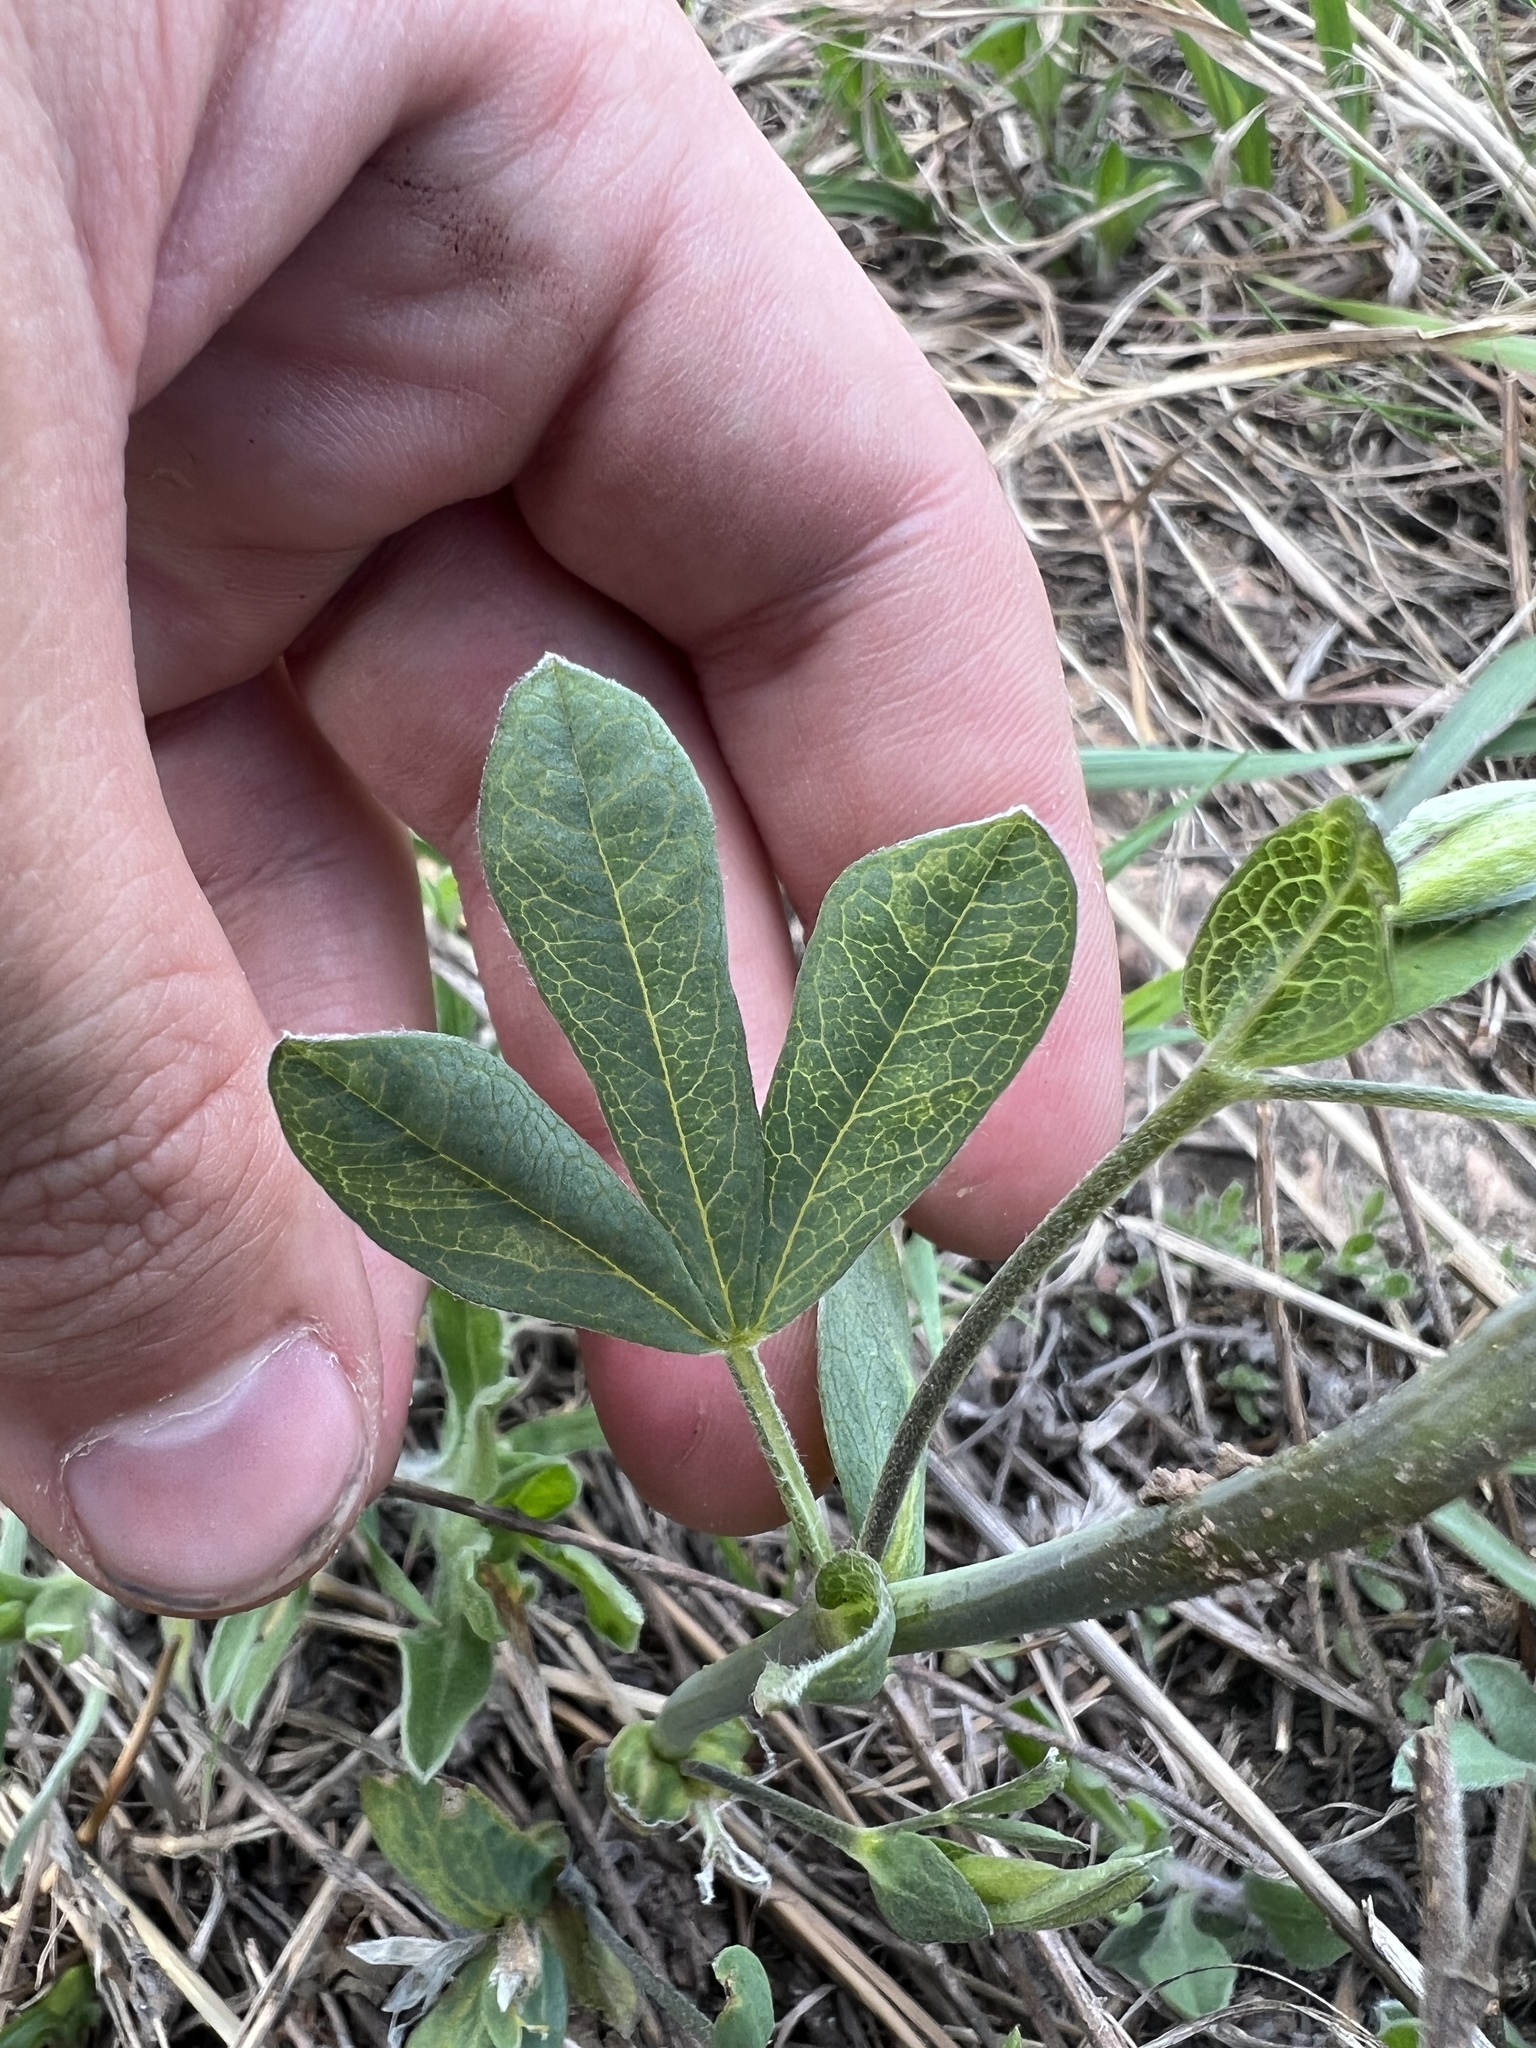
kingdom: Plantae
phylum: Tracheophyta
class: Magnoliopsida
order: Fabales
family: Fabaceae
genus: Thermopsis
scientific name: Thermopsis rhombifolia
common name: Circle-pod-pea
